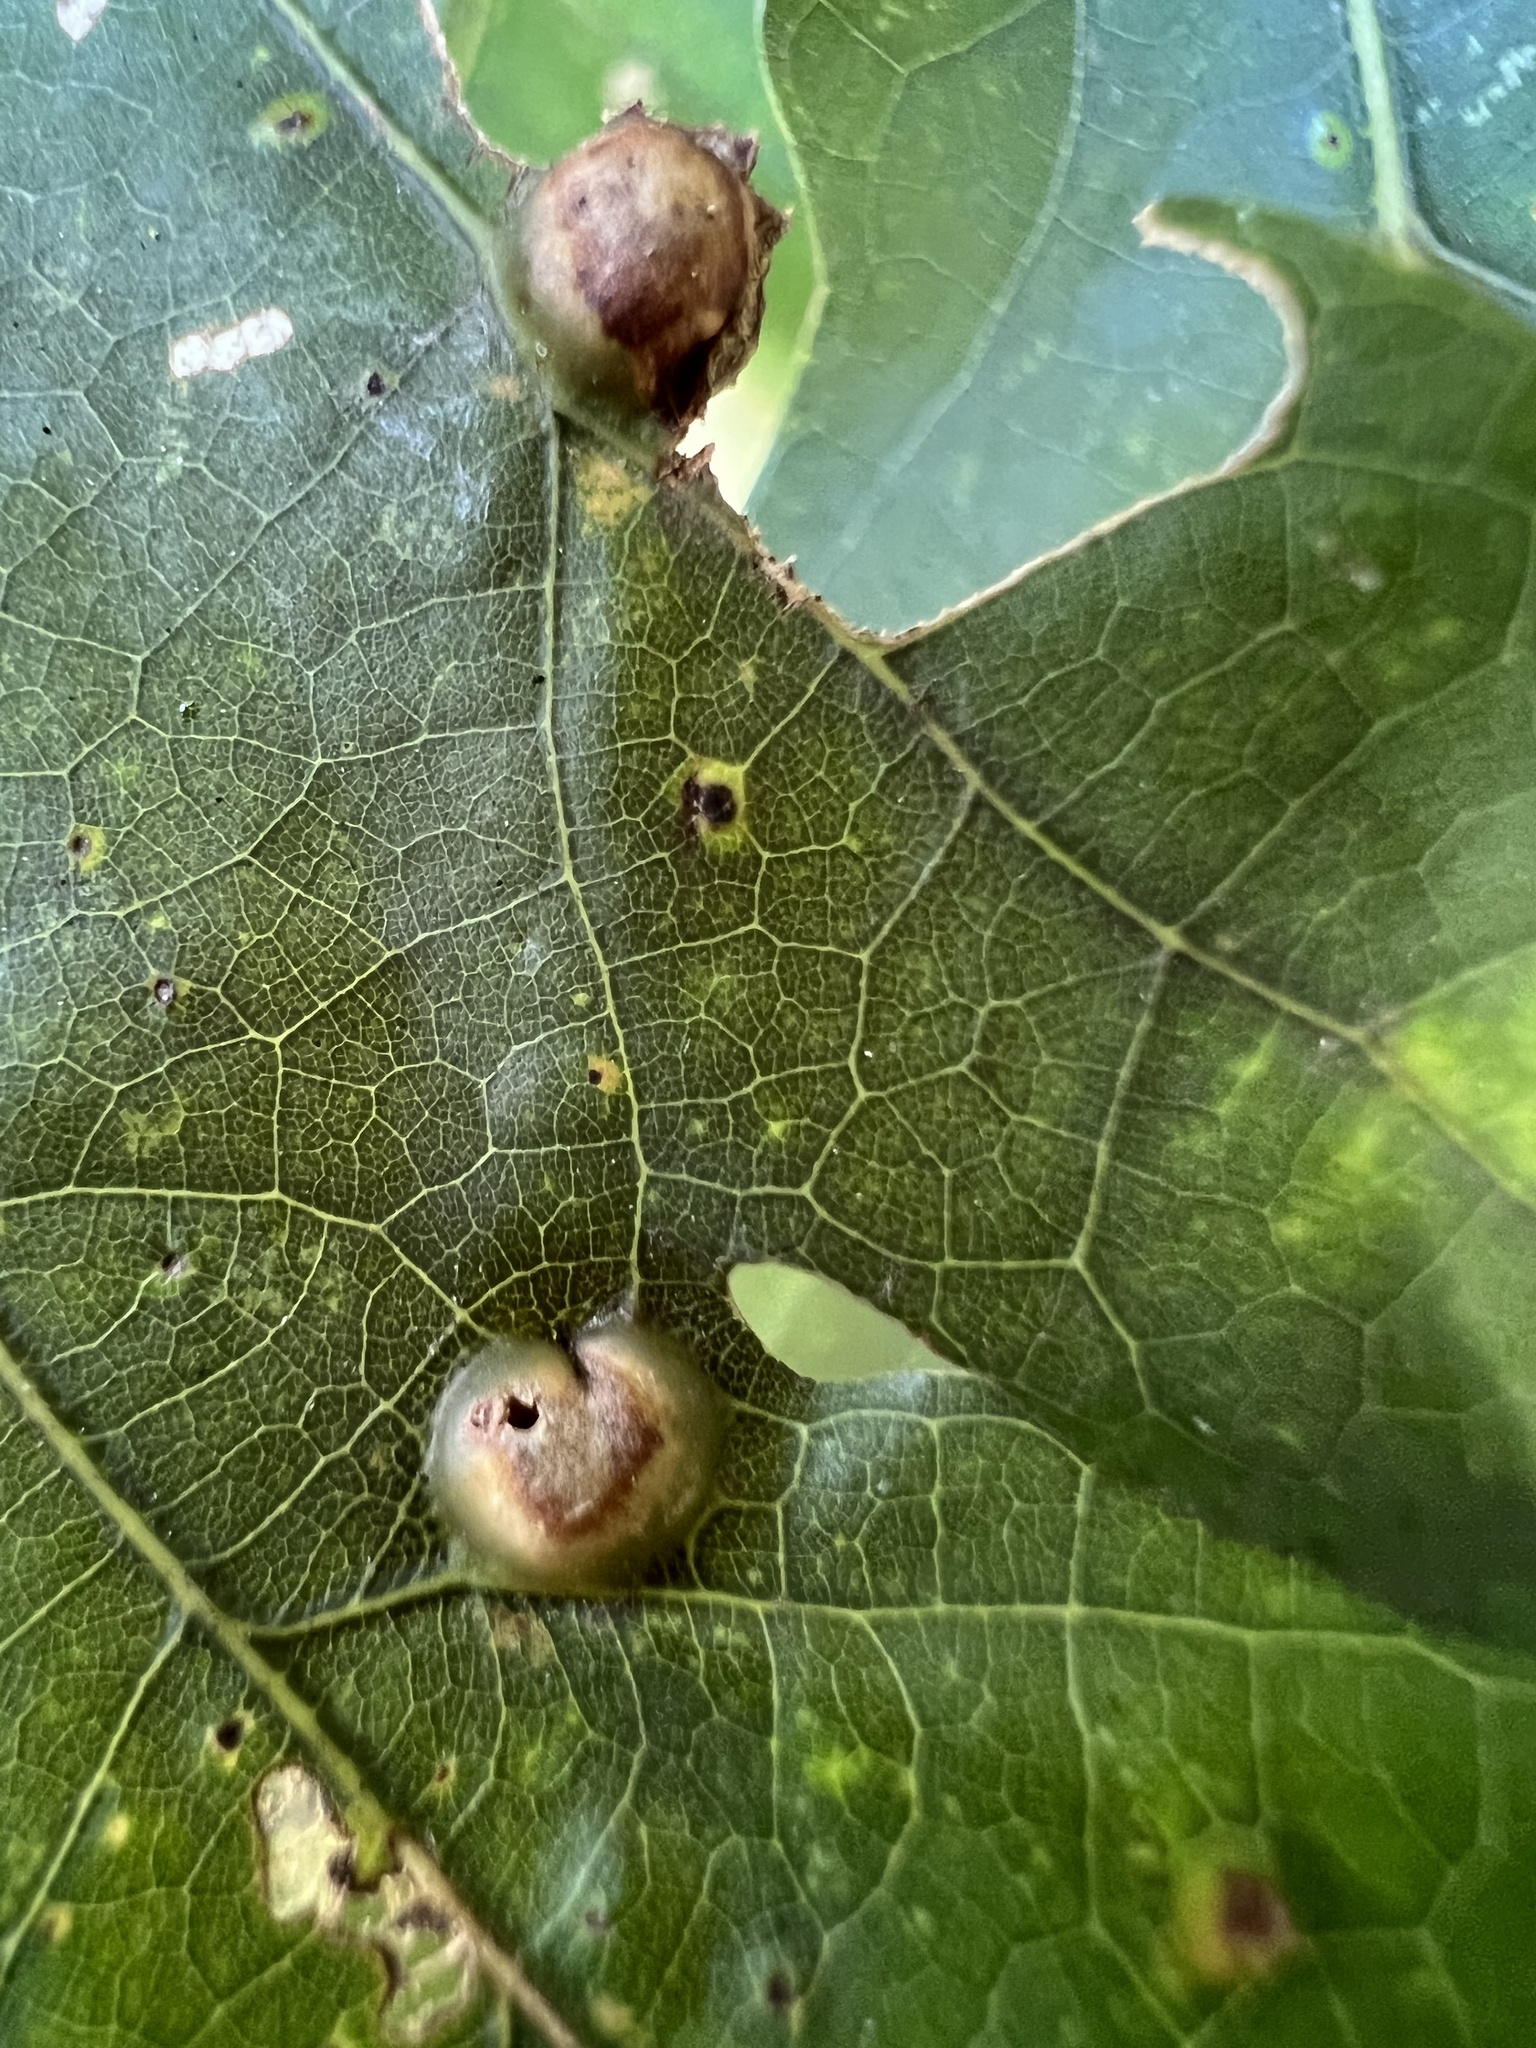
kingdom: Animalia
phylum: Arthropoda
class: Insecta
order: Hymenoptera
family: Cynipidae
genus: Callirhytis
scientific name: Callirhytis
